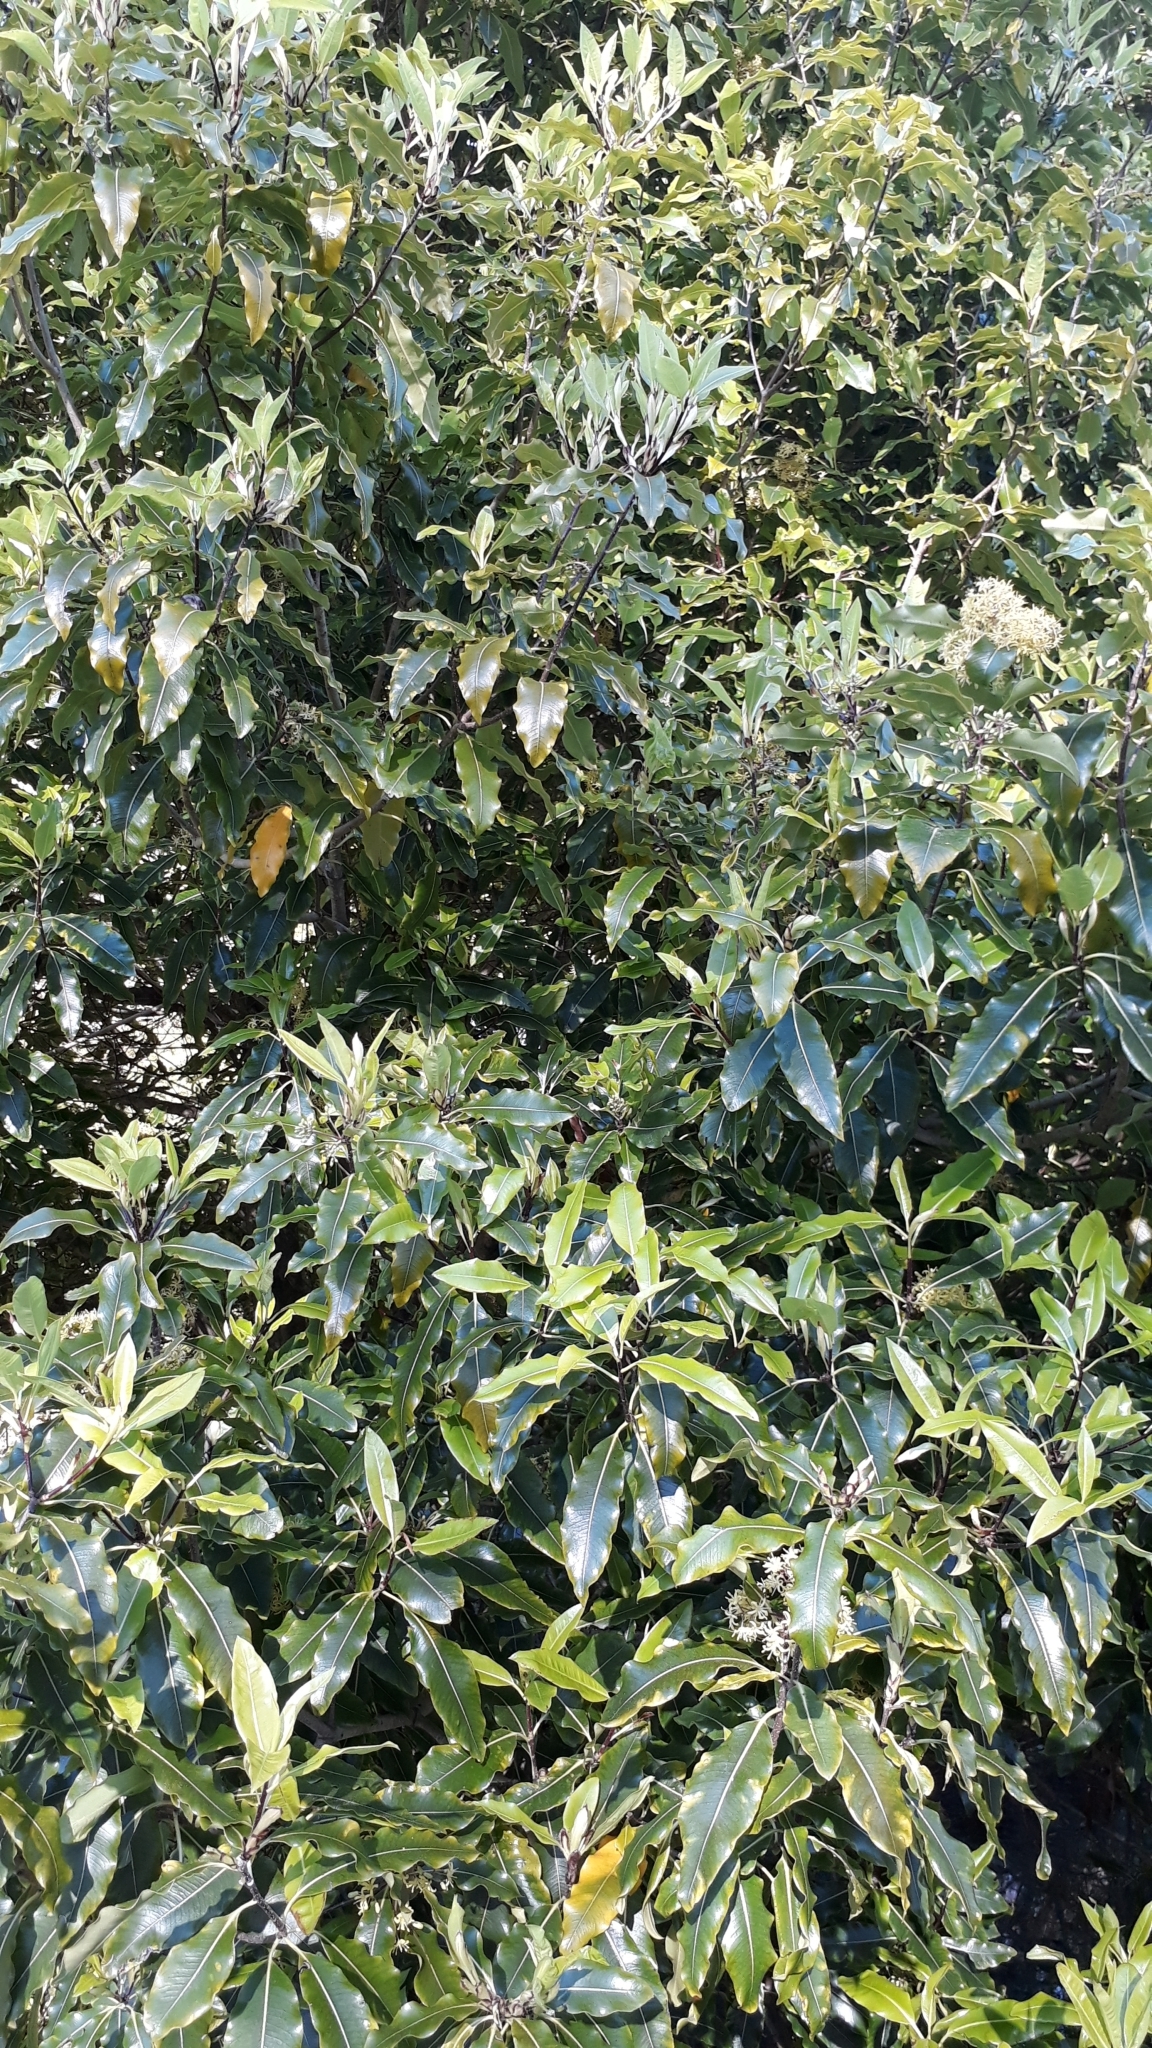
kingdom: Plantae
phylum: Tracheophyta
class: Magnoliopsida
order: Apiales
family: Pittosporaceae
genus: Pittosporum
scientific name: Pittosporum eugenioides
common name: Lemonwood
